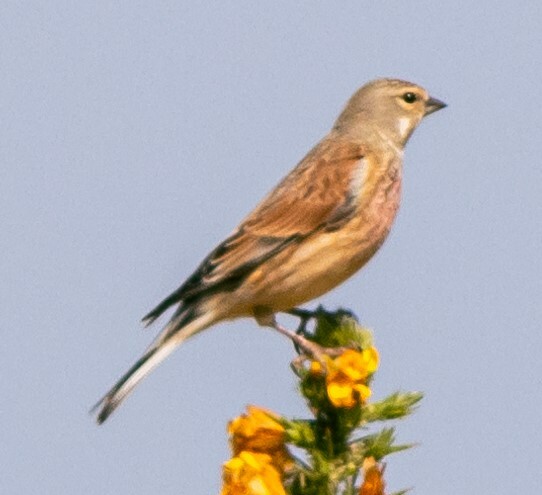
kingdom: Animalia
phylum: Chordata
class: Aves
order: Passeriformes
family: Fringillidae
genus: Linaria
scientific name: Linaria cannabina
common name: Common linnet
